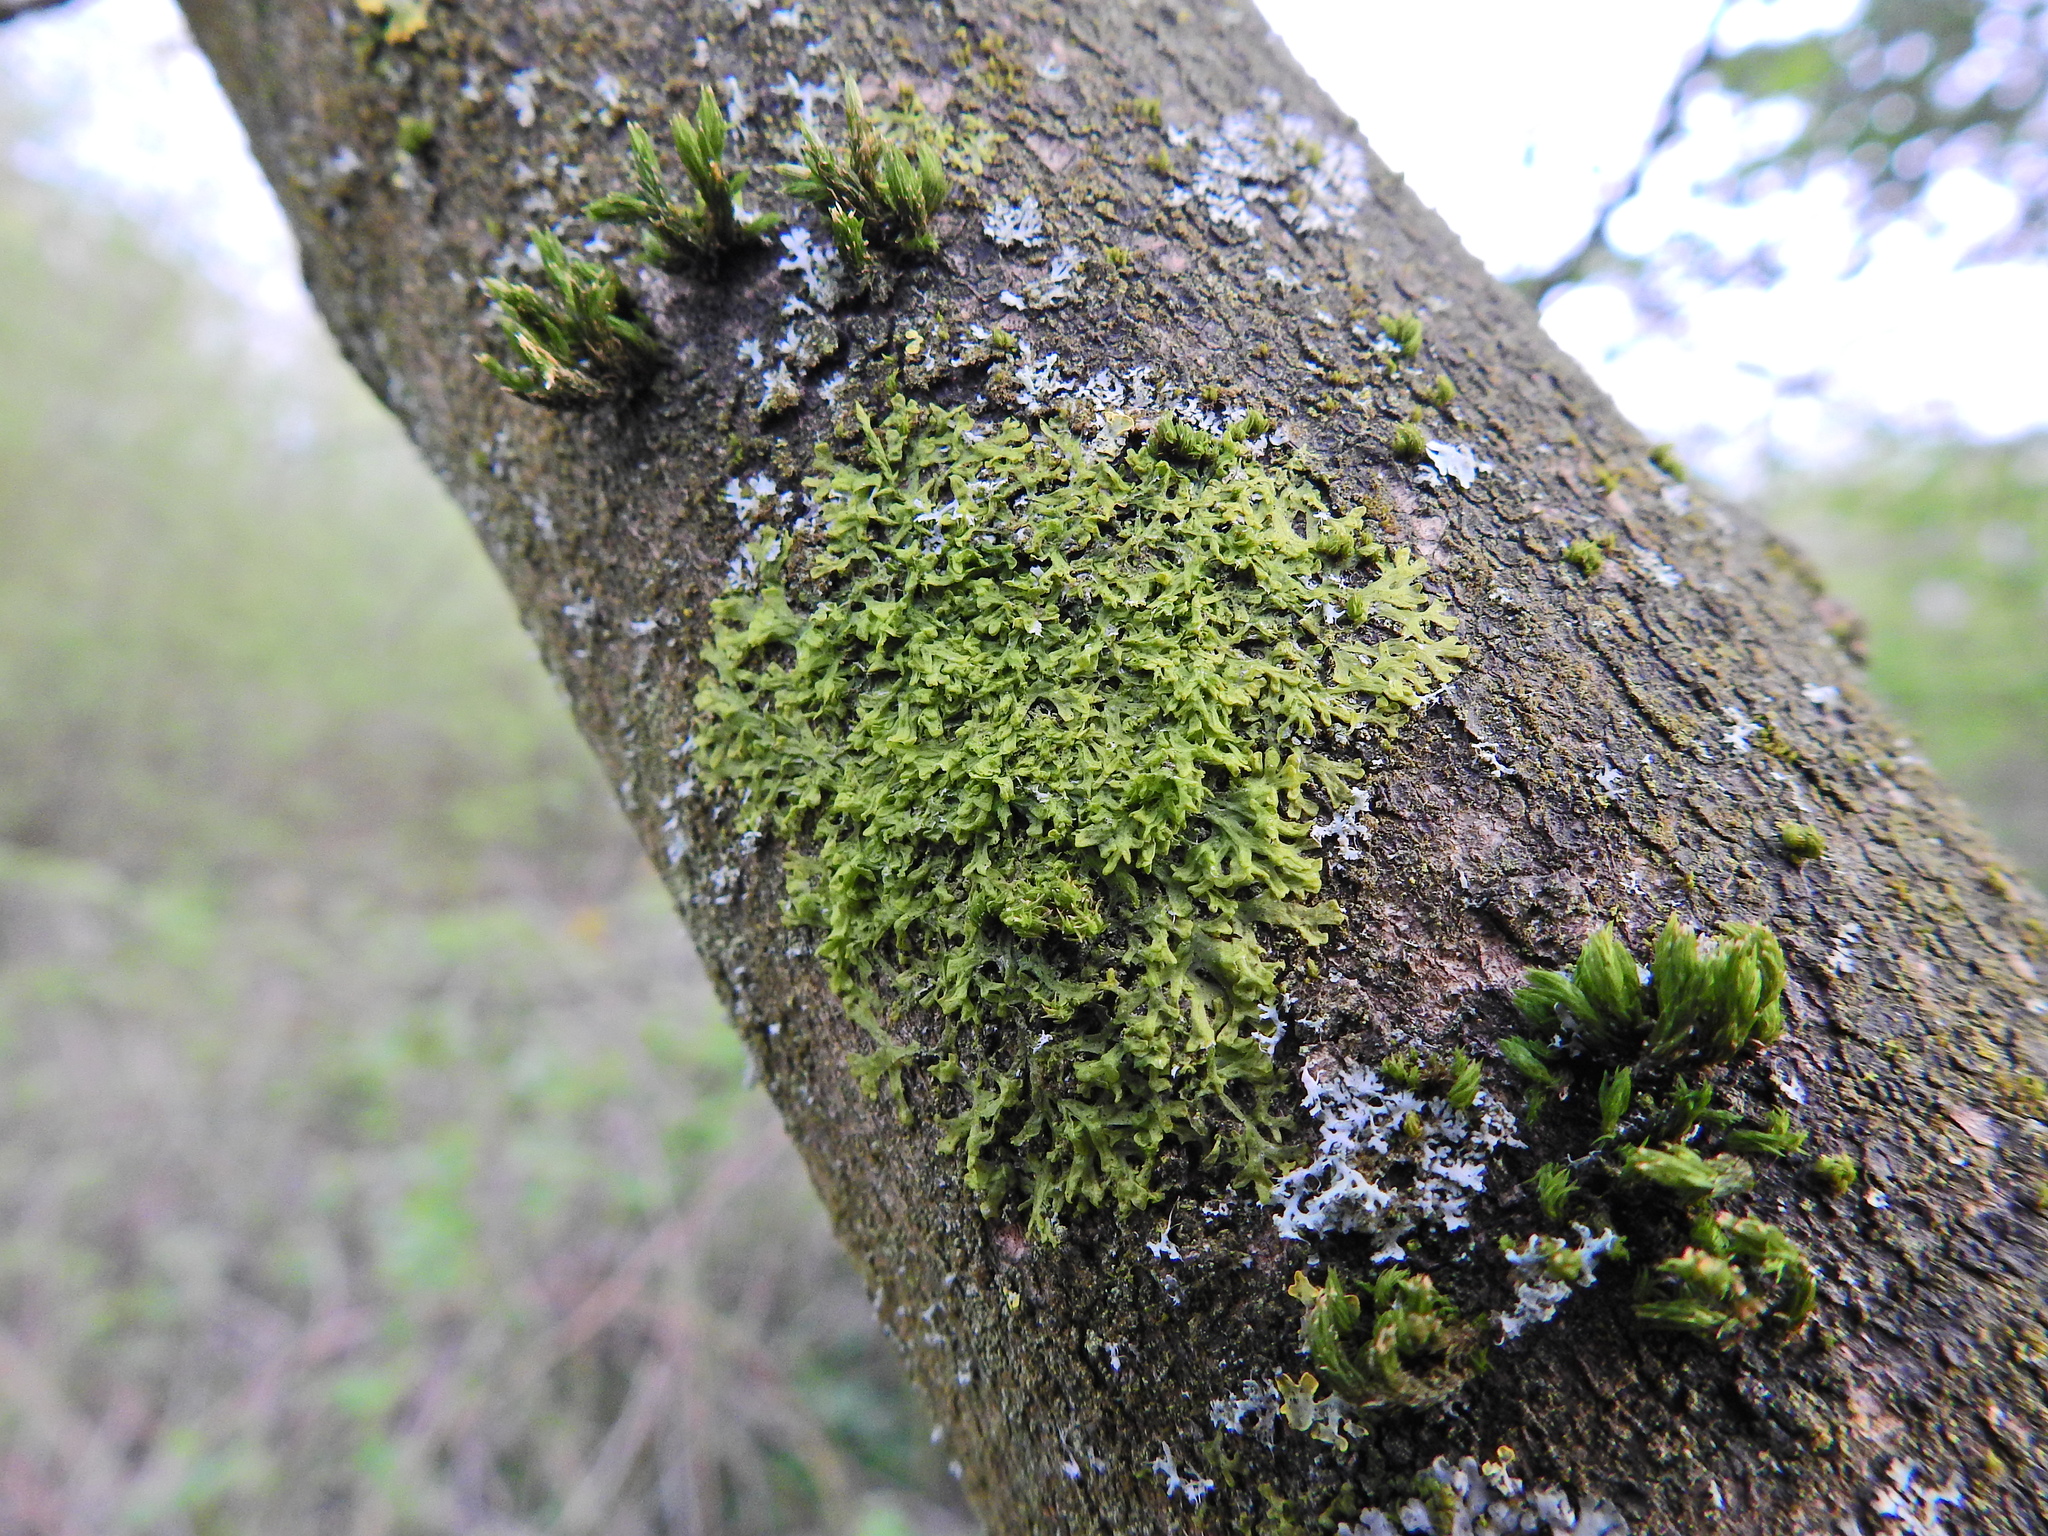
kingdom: Plantae
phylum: Marchantiophyta
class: Jungermanniopsida
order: Metzgeriales
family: Metzgeriaceae
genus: Metzgeria
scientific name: Metzgeria furcata
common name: Forked veilwort
